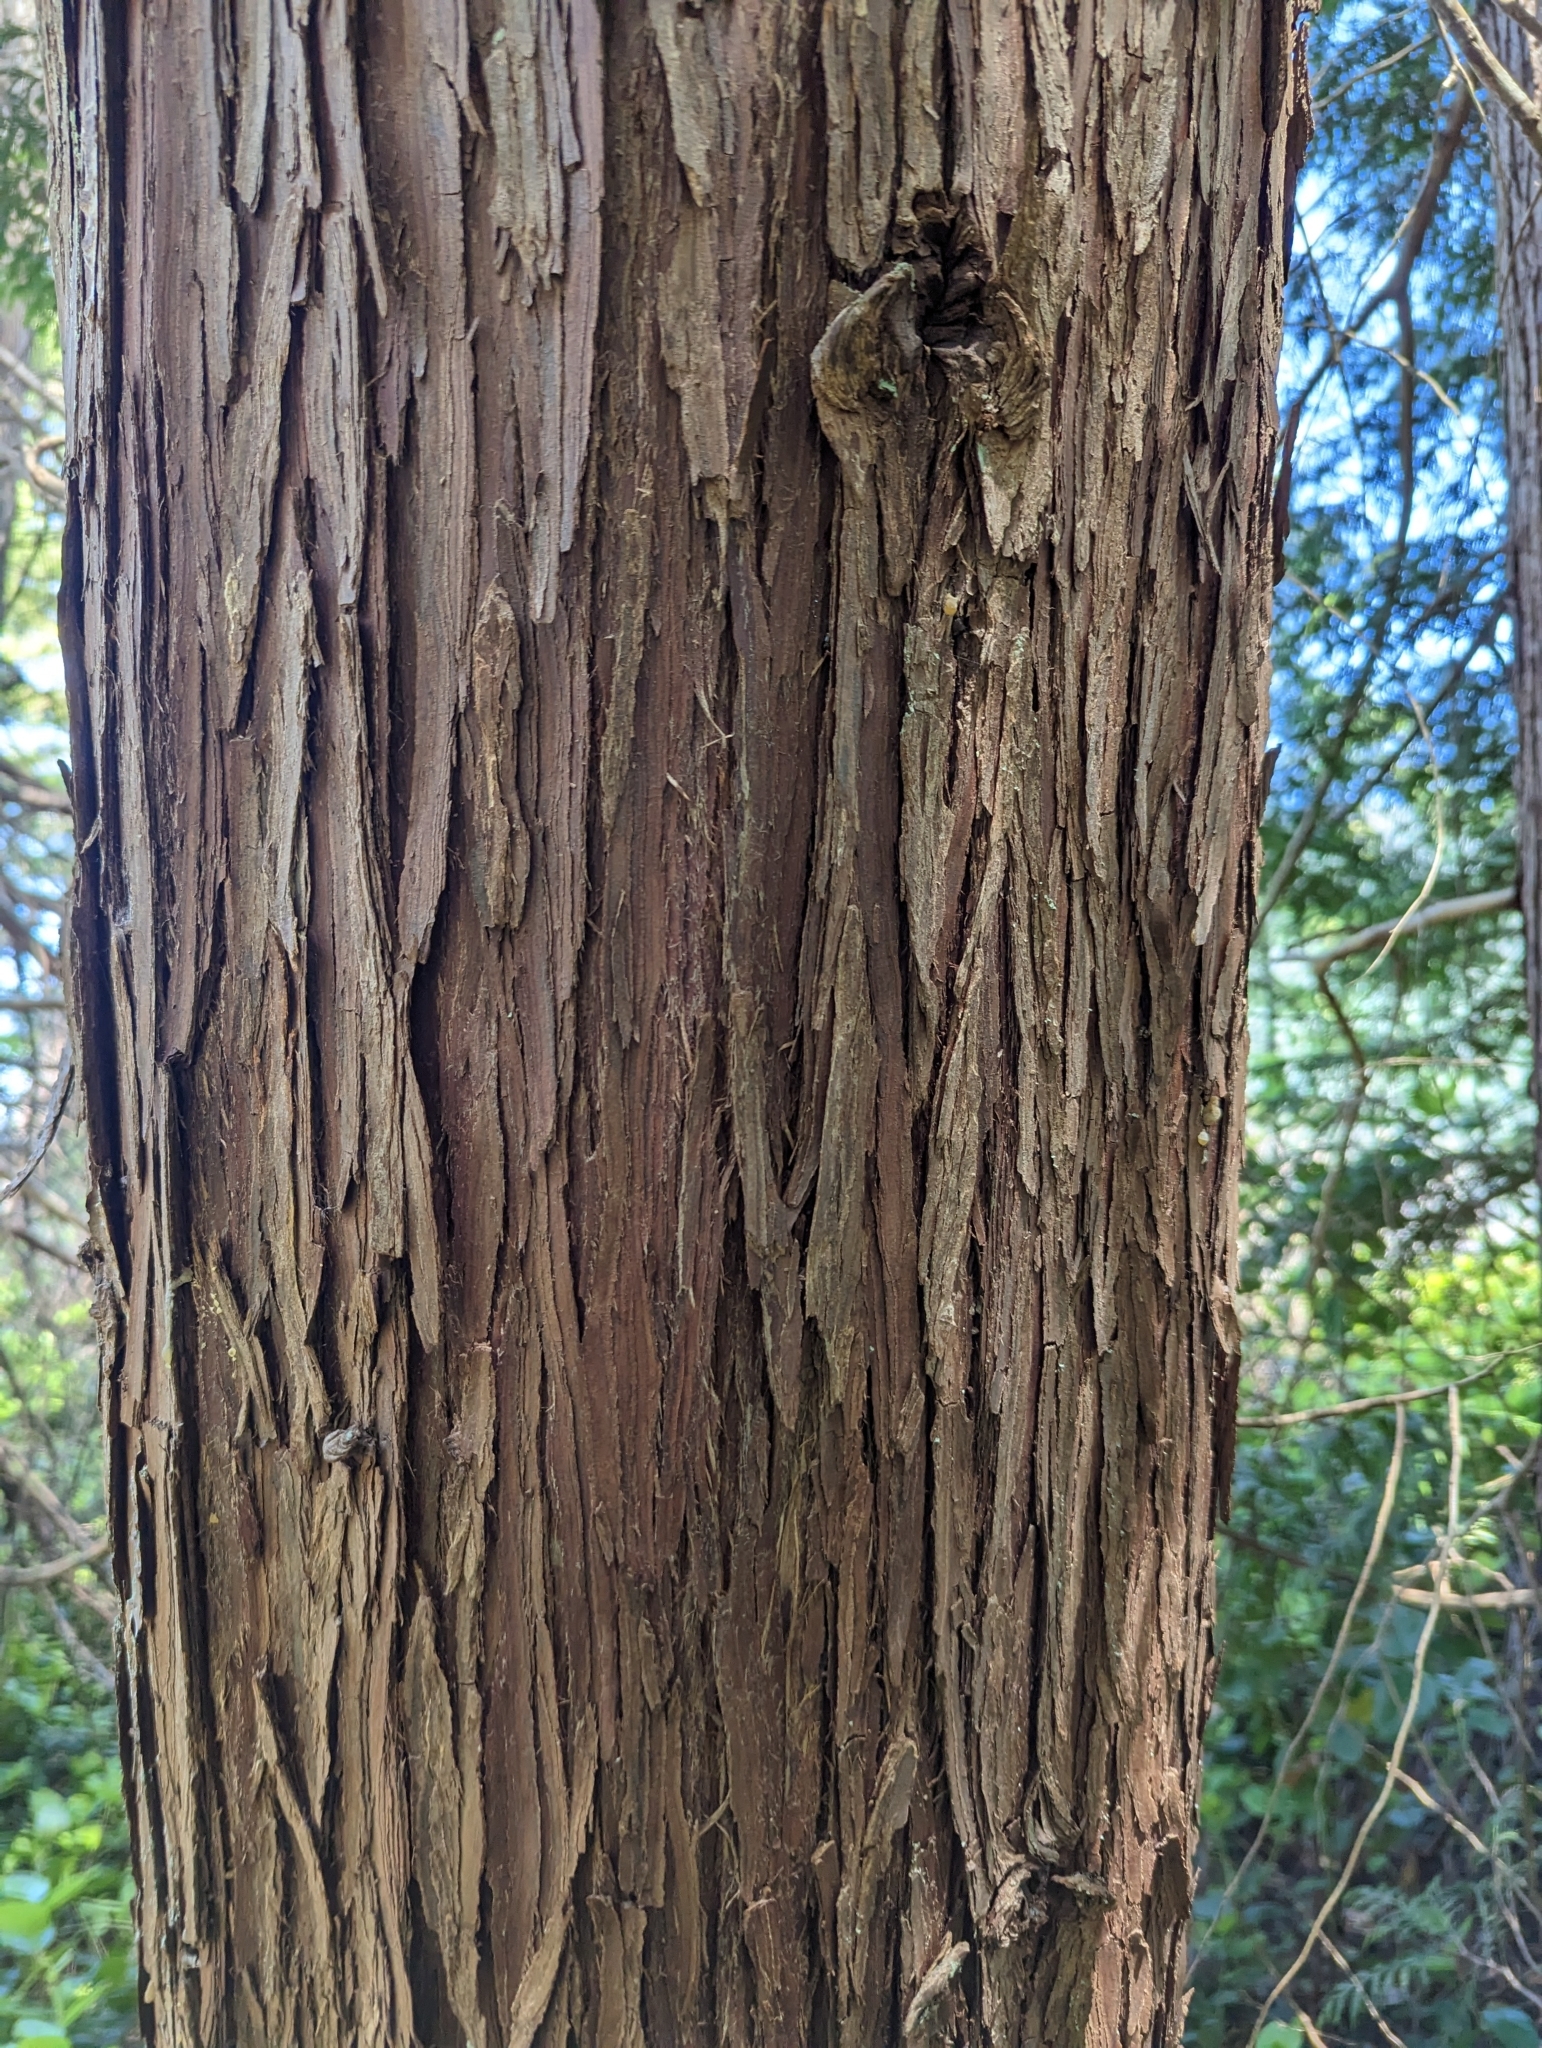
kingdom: Plantae
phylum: Tracheophyta
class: Pinopsida
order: Pinales
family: Cupressaceae
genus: Thuja
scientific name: Thuja plicata
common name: Western red-cedar
